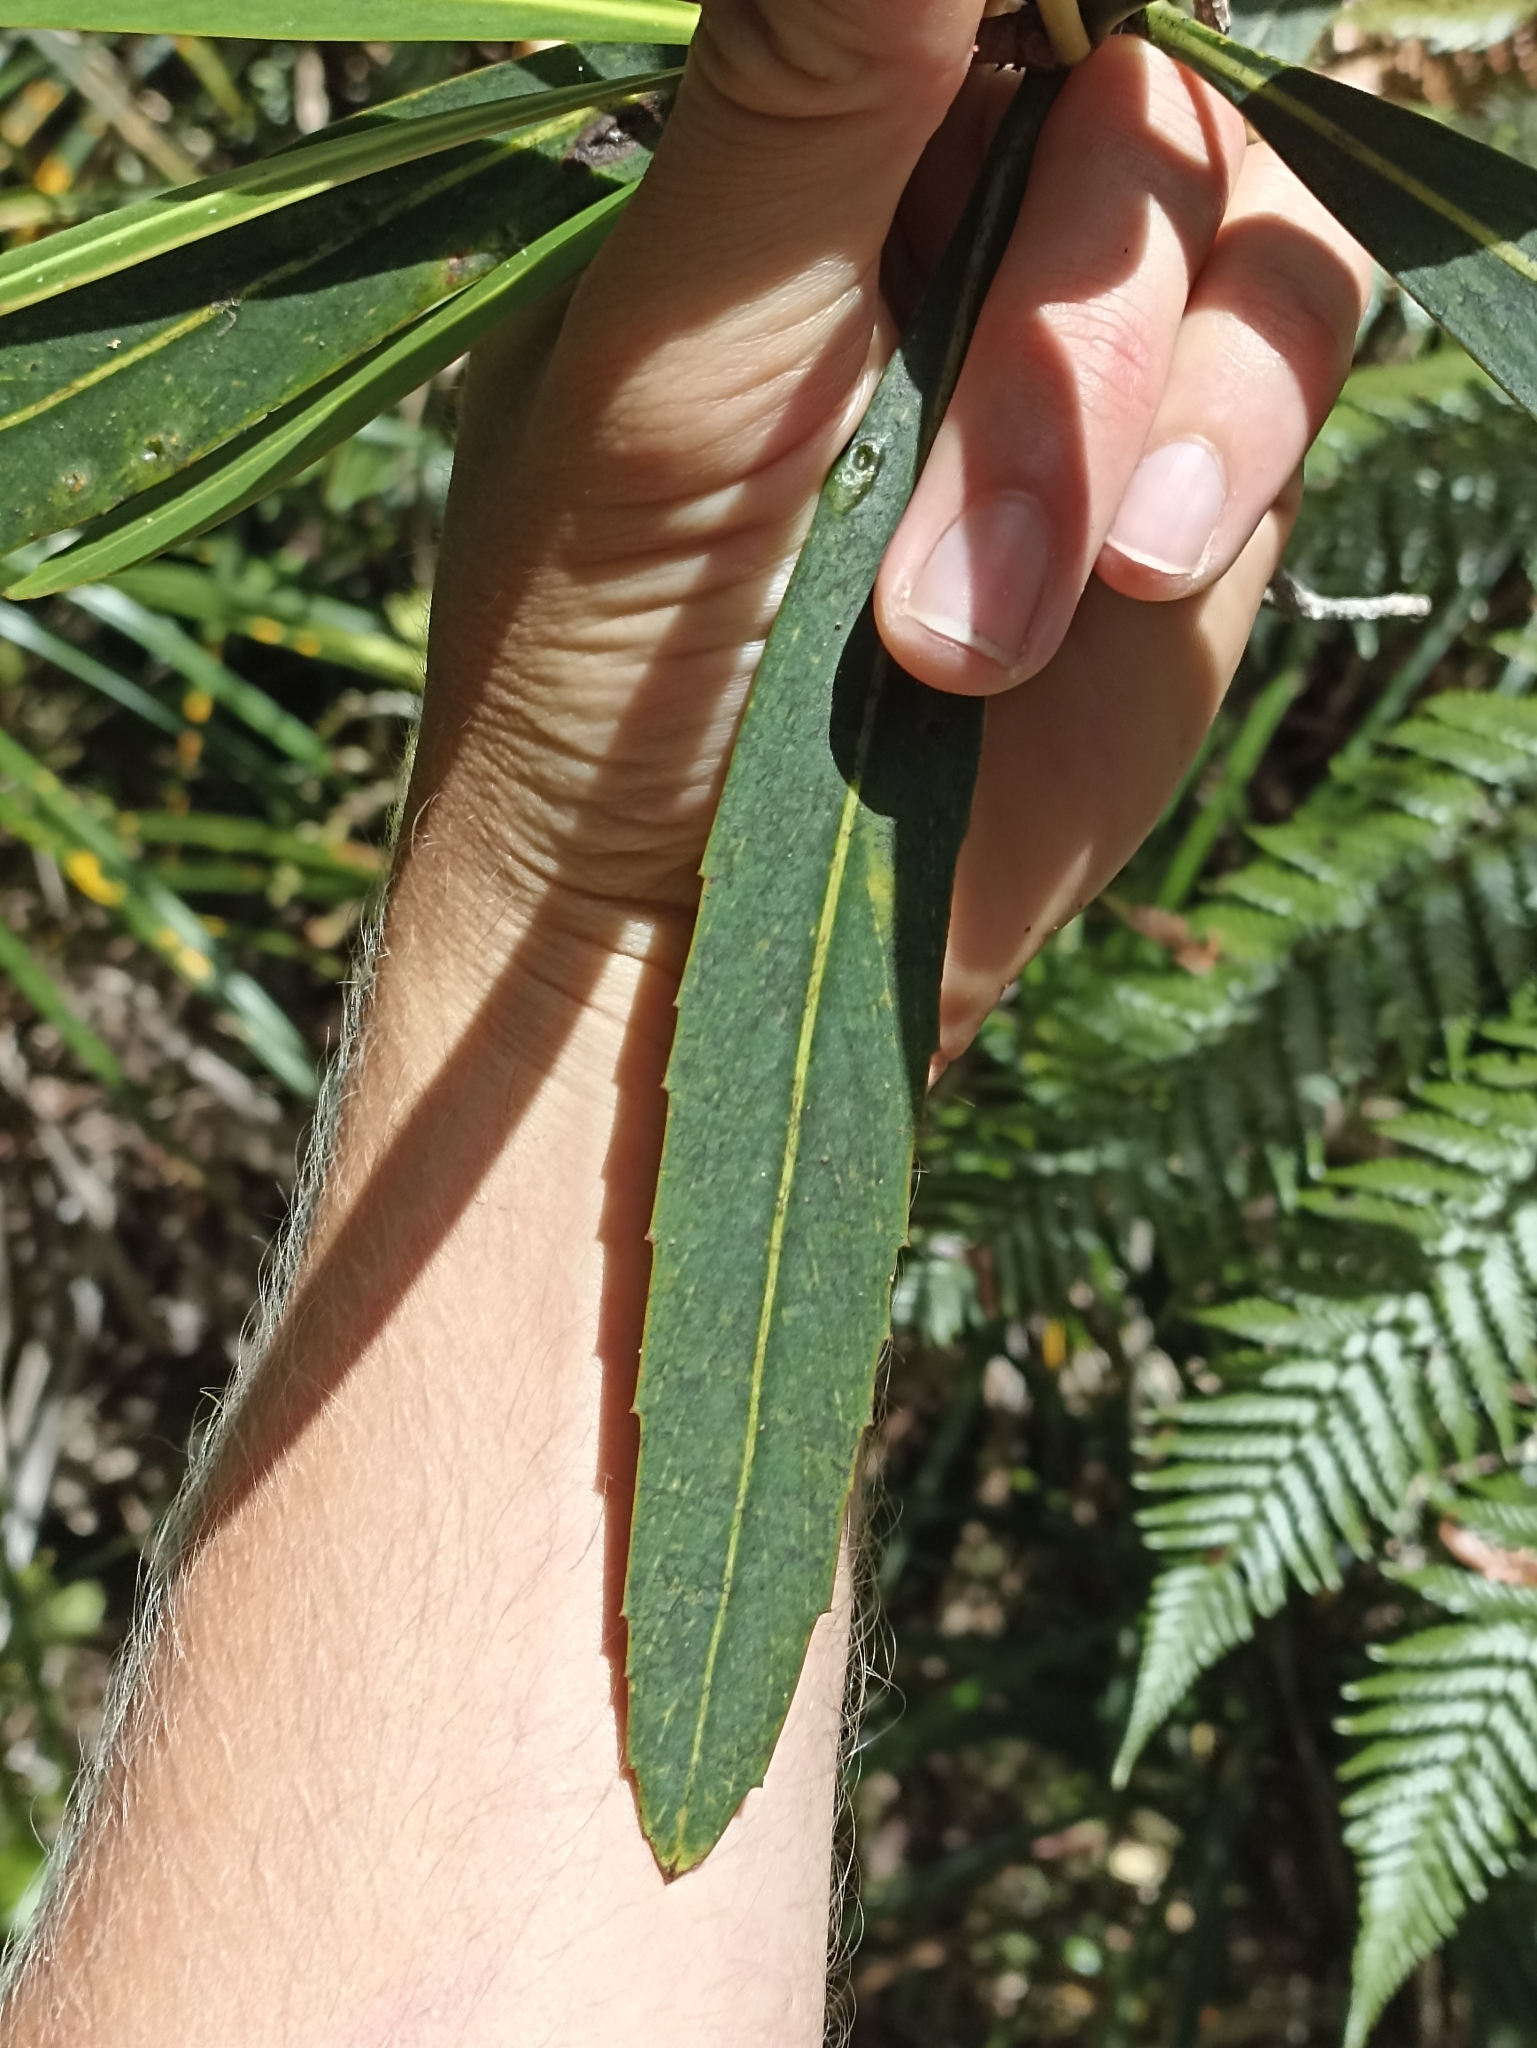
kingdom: Plantae
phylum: Tracheophyta
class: Magnoliopsida
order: Apiales
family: Araliaceae
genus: Pseudopanax
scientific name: Pseudopanax crassifolius
